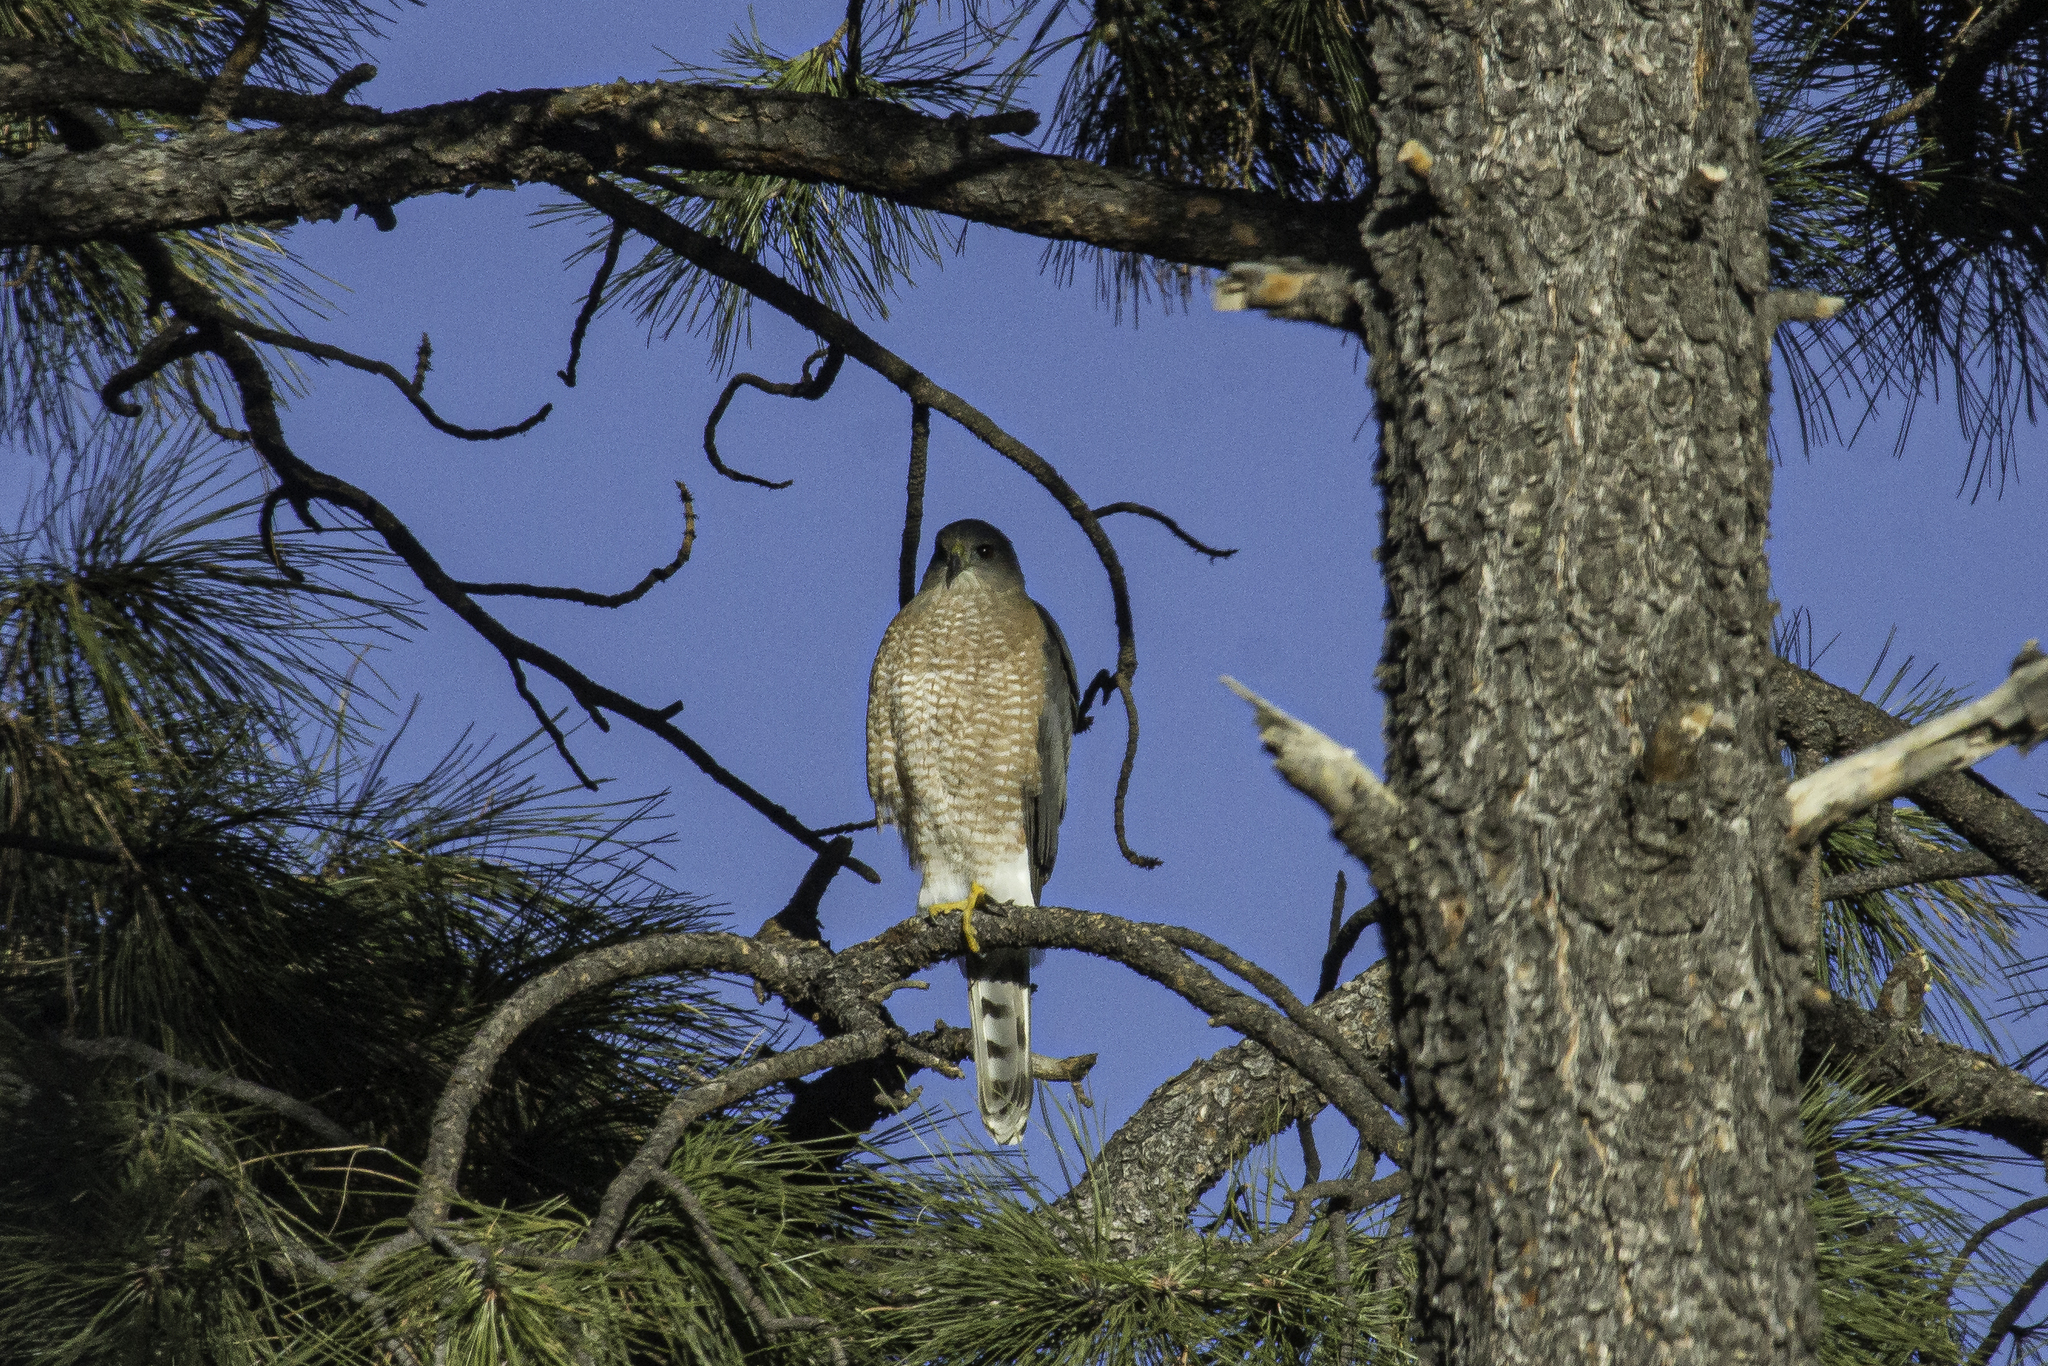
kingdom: Animalia
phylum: Chordata
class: Aves
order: Accipitriformes
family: Accipitridae
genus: Accipiter
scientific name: Accipiter cooperii
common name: Cooper's hawk
